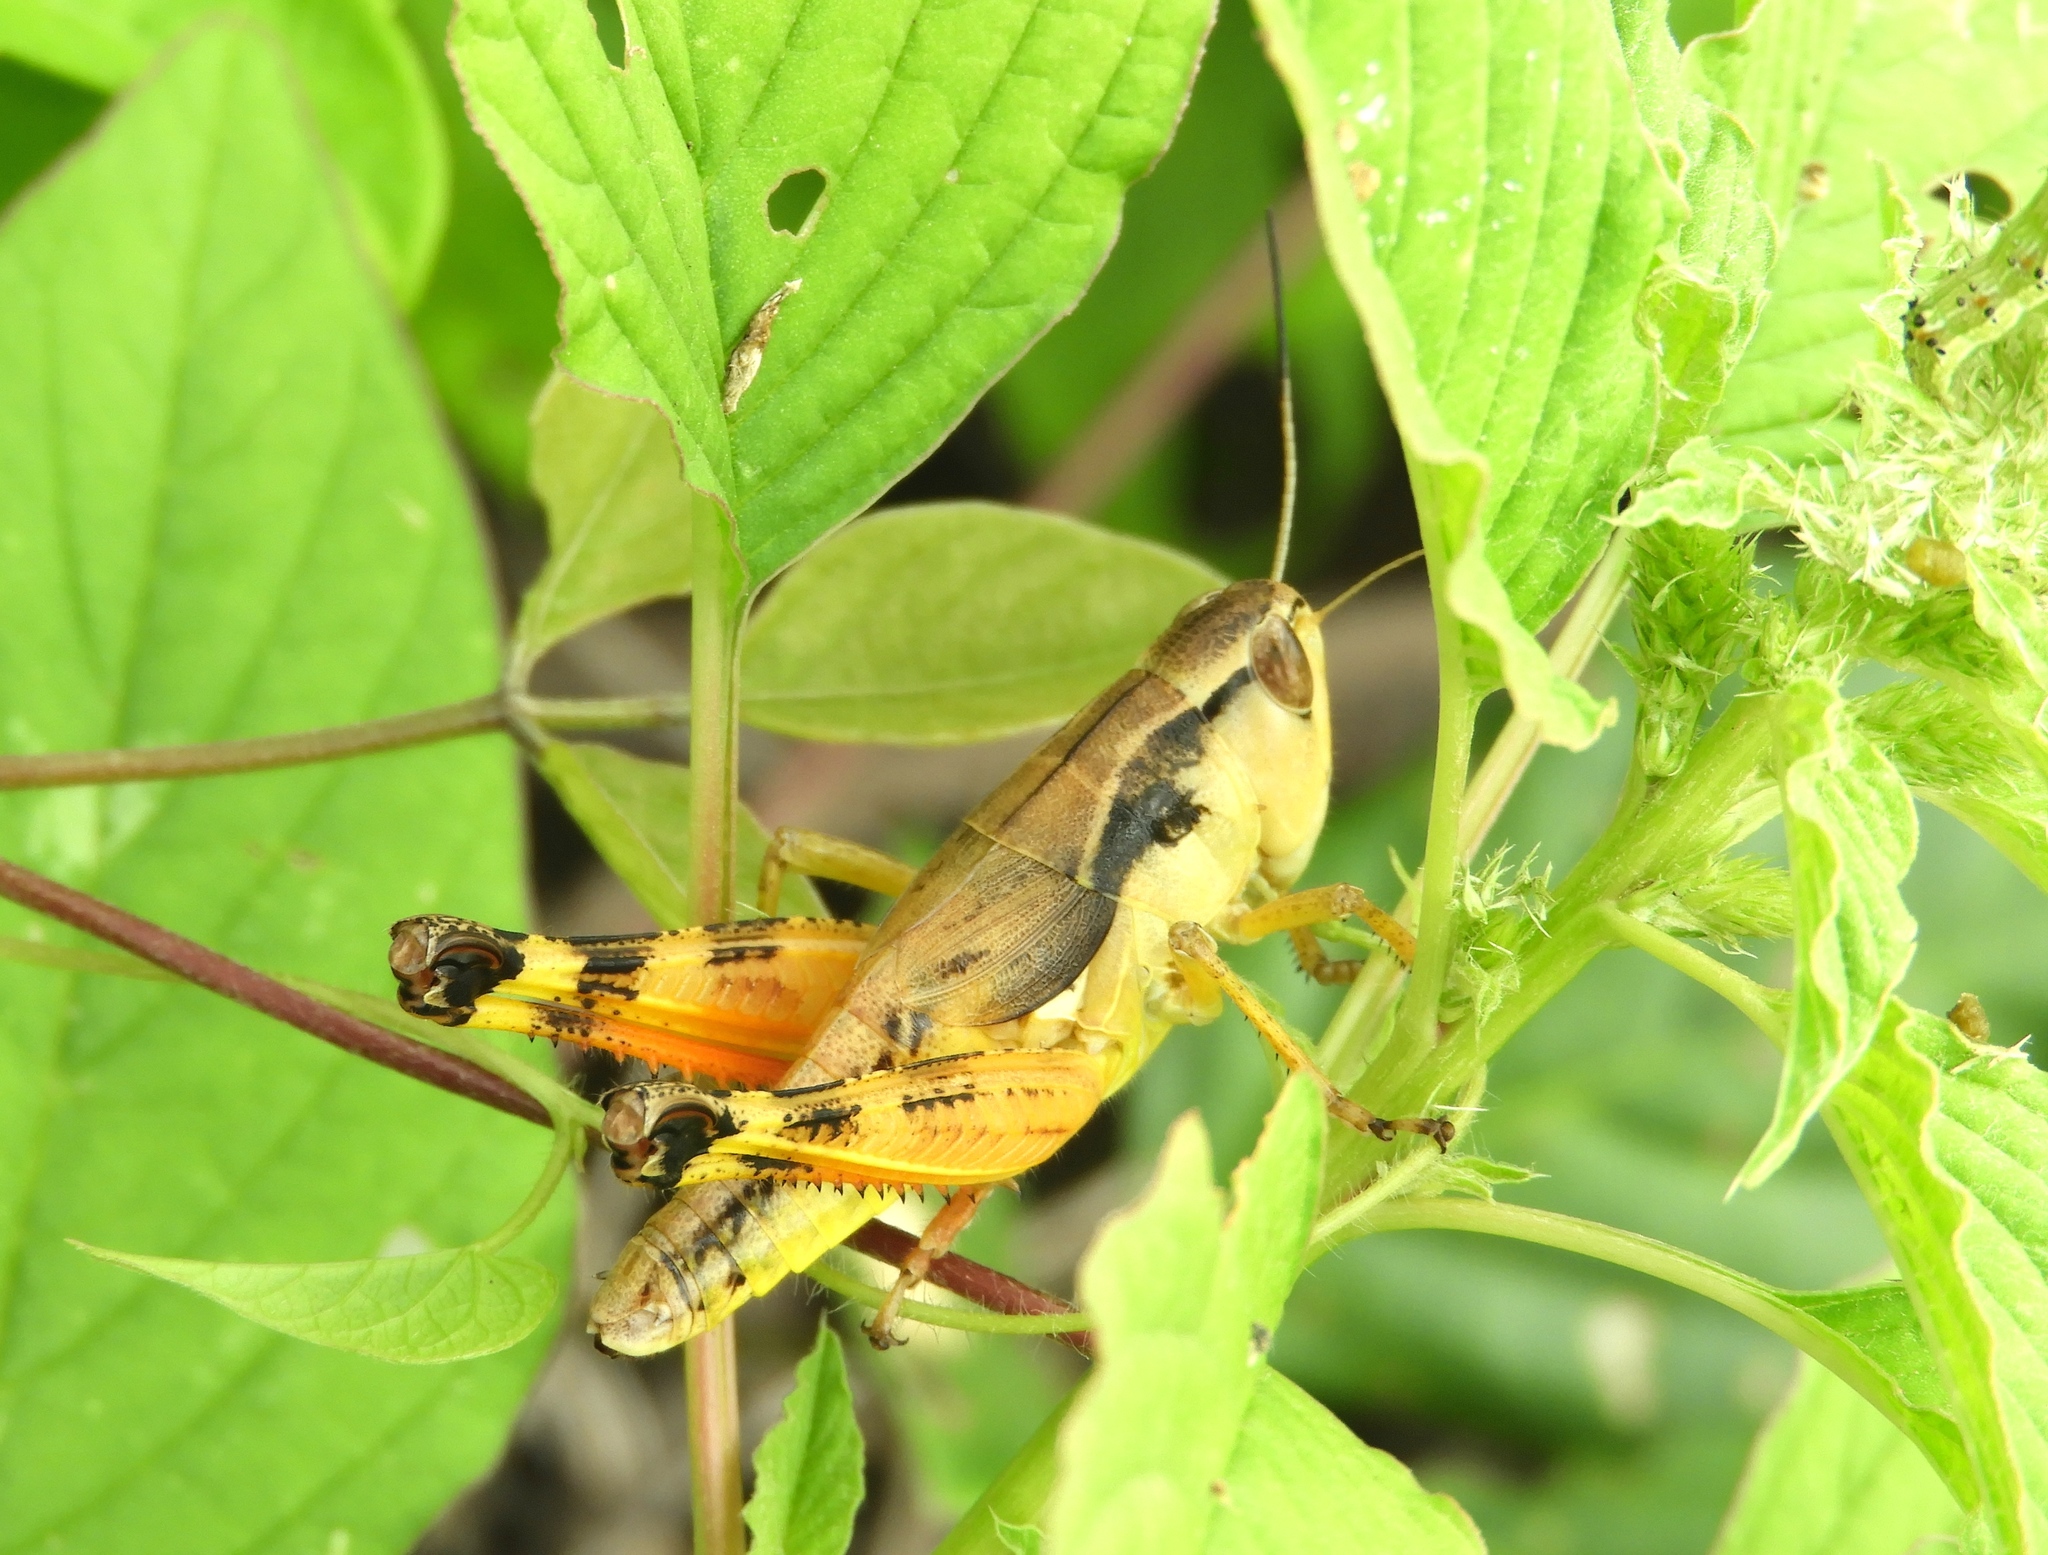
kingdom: Animalia
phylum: Arthropoda
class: Insecta
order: Orthoptera
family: Acrididae
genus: Boopedon
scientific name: Boopedon flaviventris
